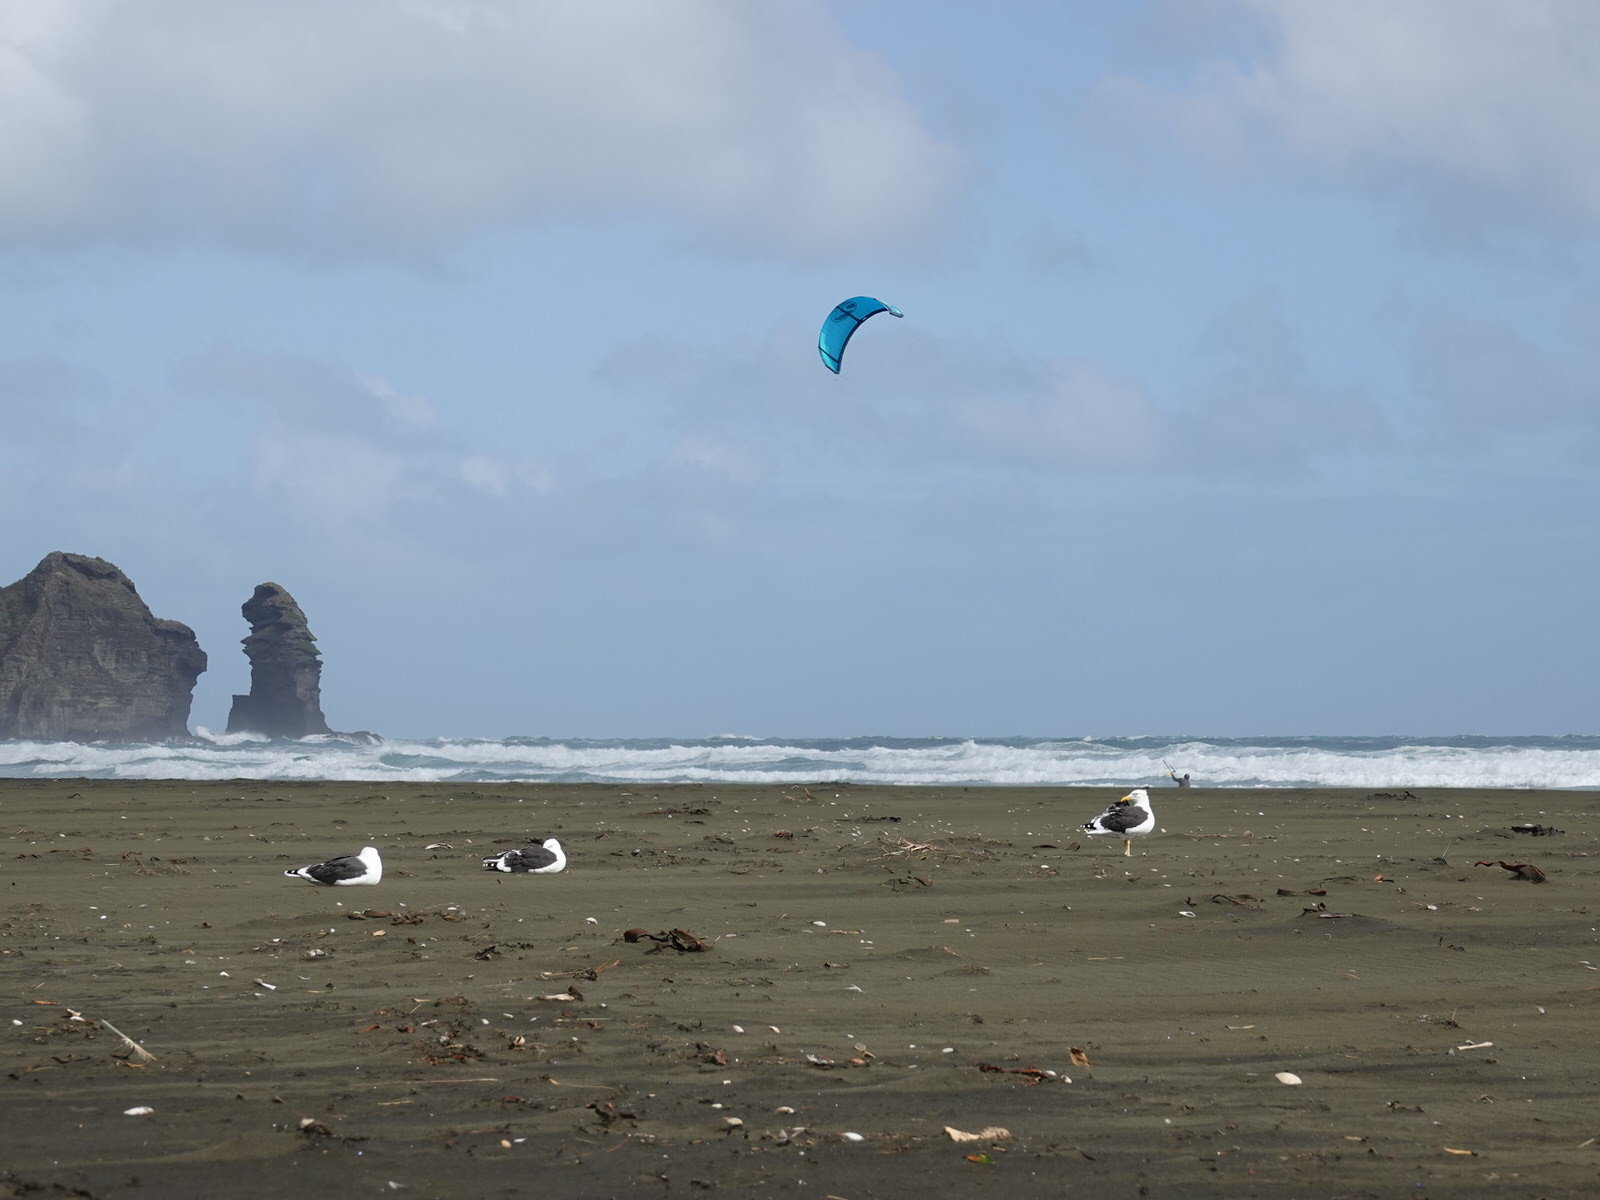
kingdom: Animalia
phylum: Chordata
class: Aves
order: Charadriiformes
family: Laridae
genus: Larus
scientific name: Larus dominicanus
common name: Kelp gull
